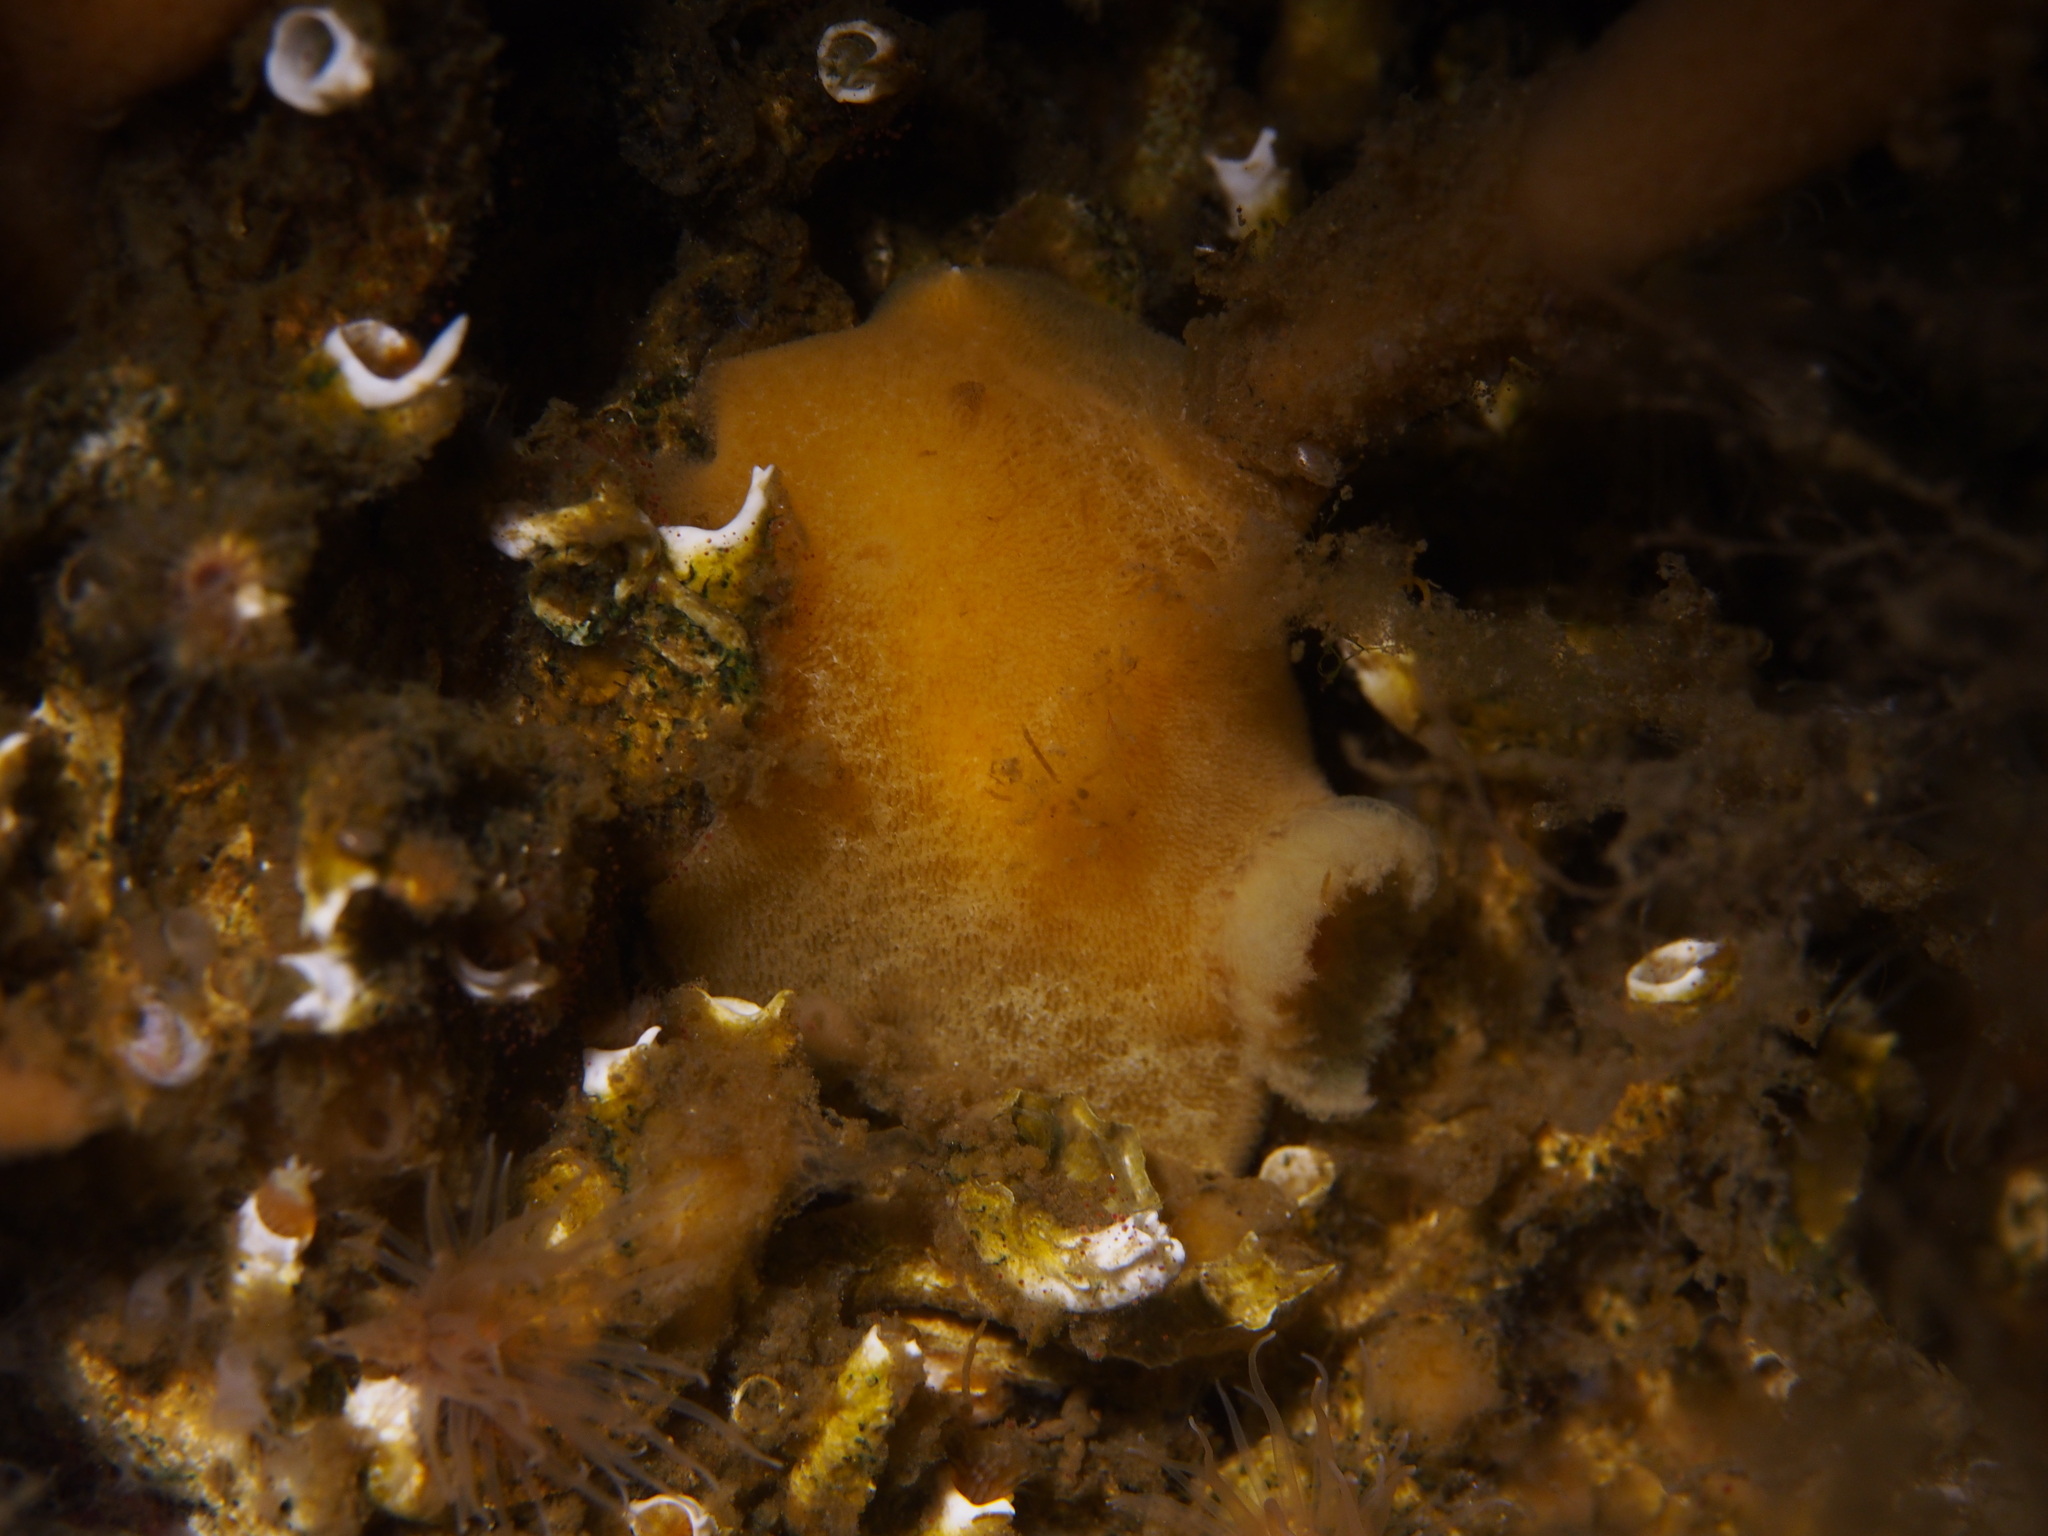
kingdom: Animalia
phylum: Mollusca
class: Gastropoda
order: Nudibranchia
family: Discodorididae
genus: Jorunna
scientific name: Jorunna tomentosa
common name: Grey sea slug
